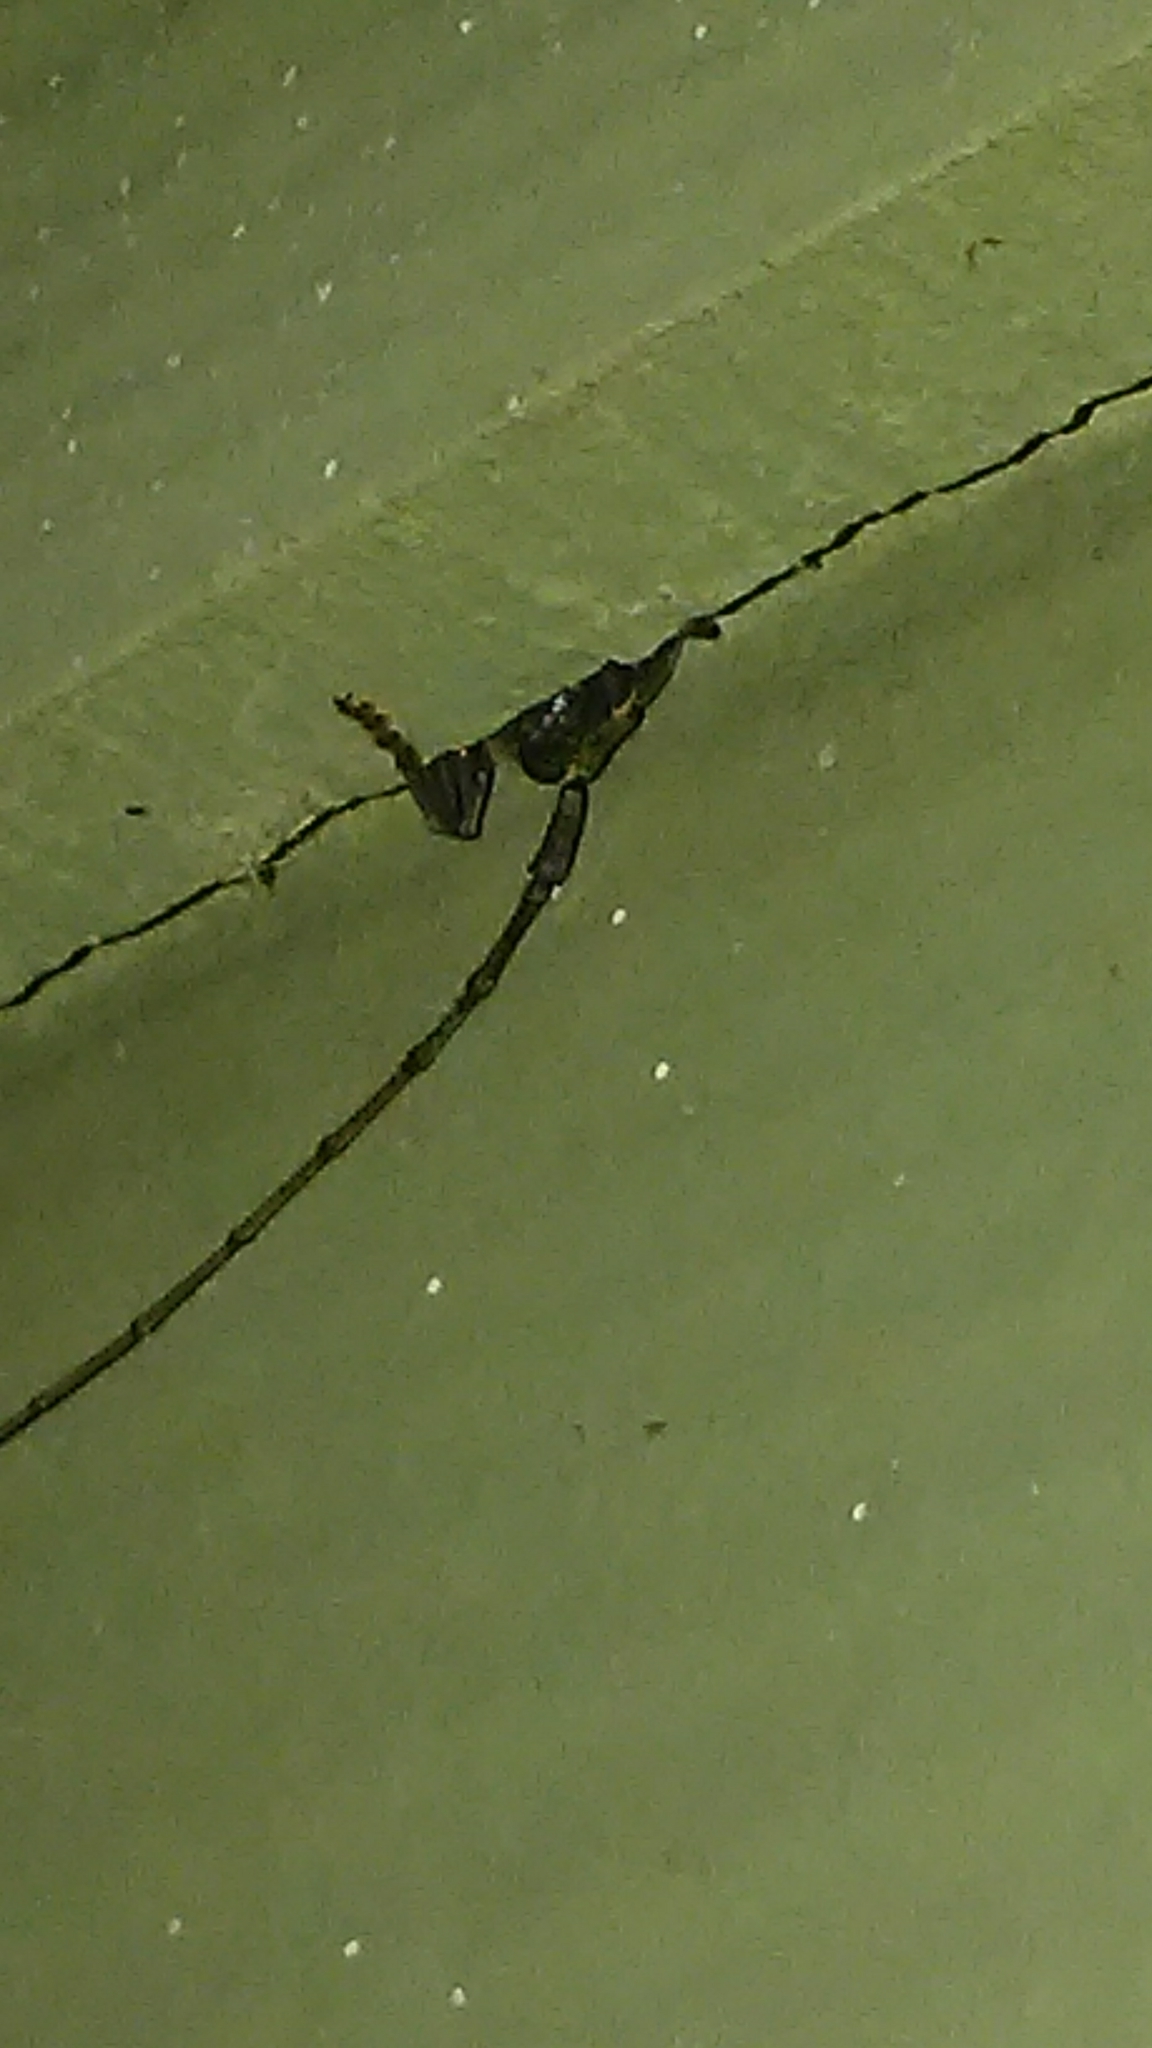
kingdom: Animalia
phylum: Arthropoda
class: Insecta
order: Coleoptera
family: Cerambycidae
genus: Elaphidion
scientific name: Elaphidion mucronatum
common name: Spined oak borer
